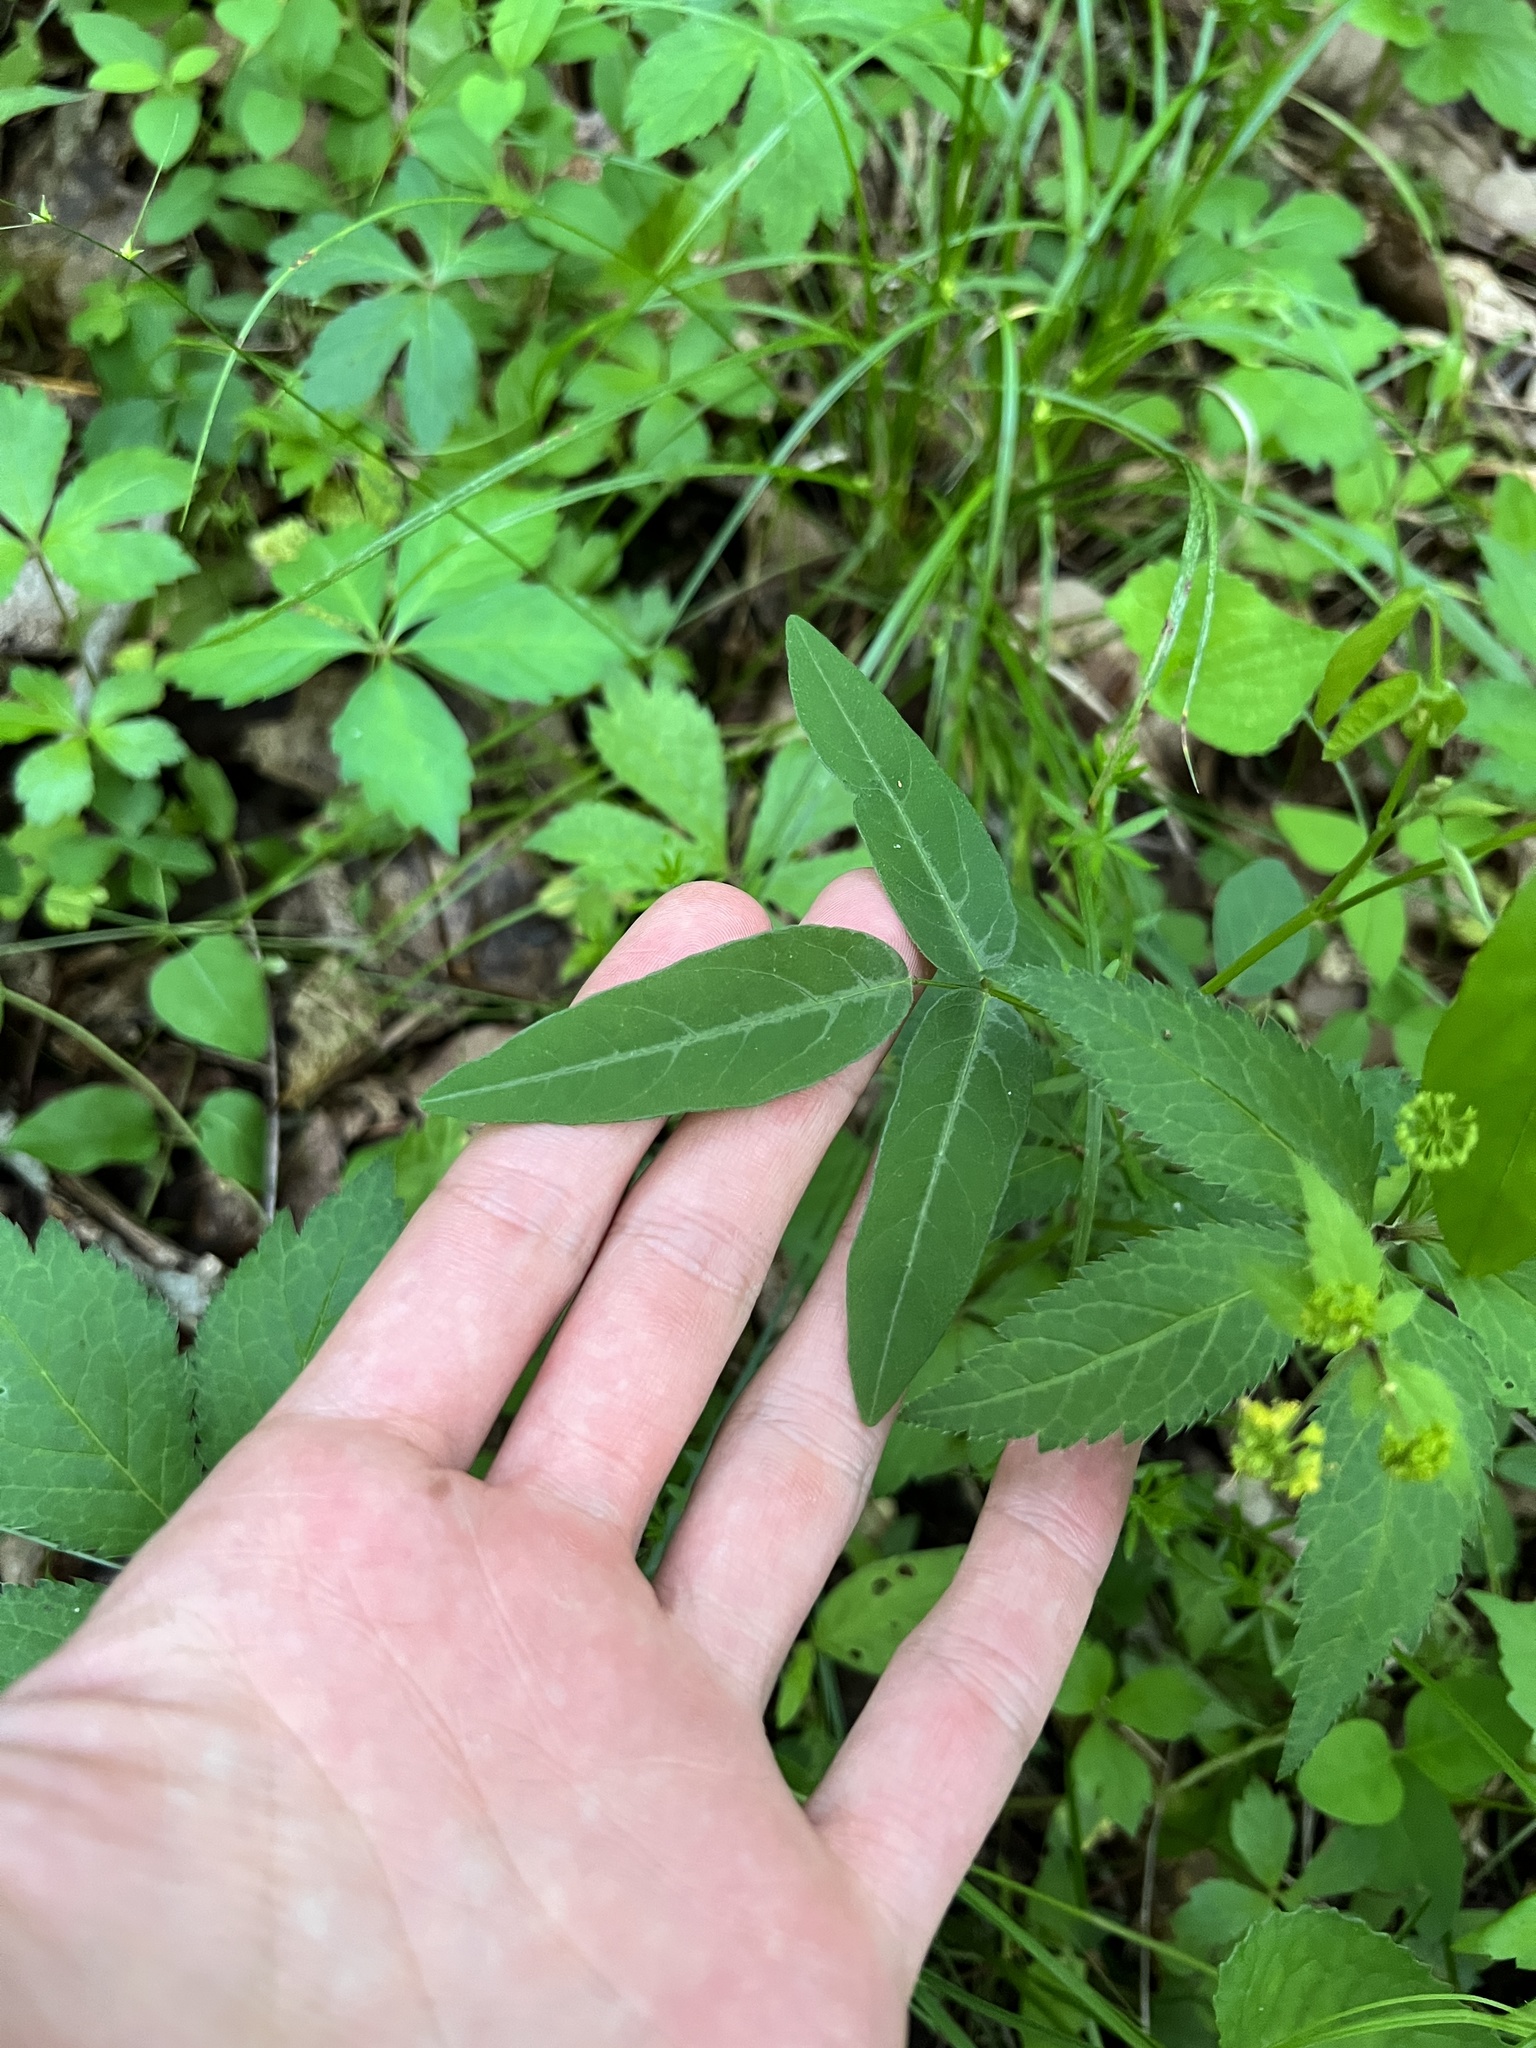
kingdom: Plantae
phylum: Tracheophyta
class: Magnoliopsida
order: Fabales
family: Fabaceae
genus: Desmodium
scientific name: Desmodium paniculatum
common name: Panicled tick-clover
